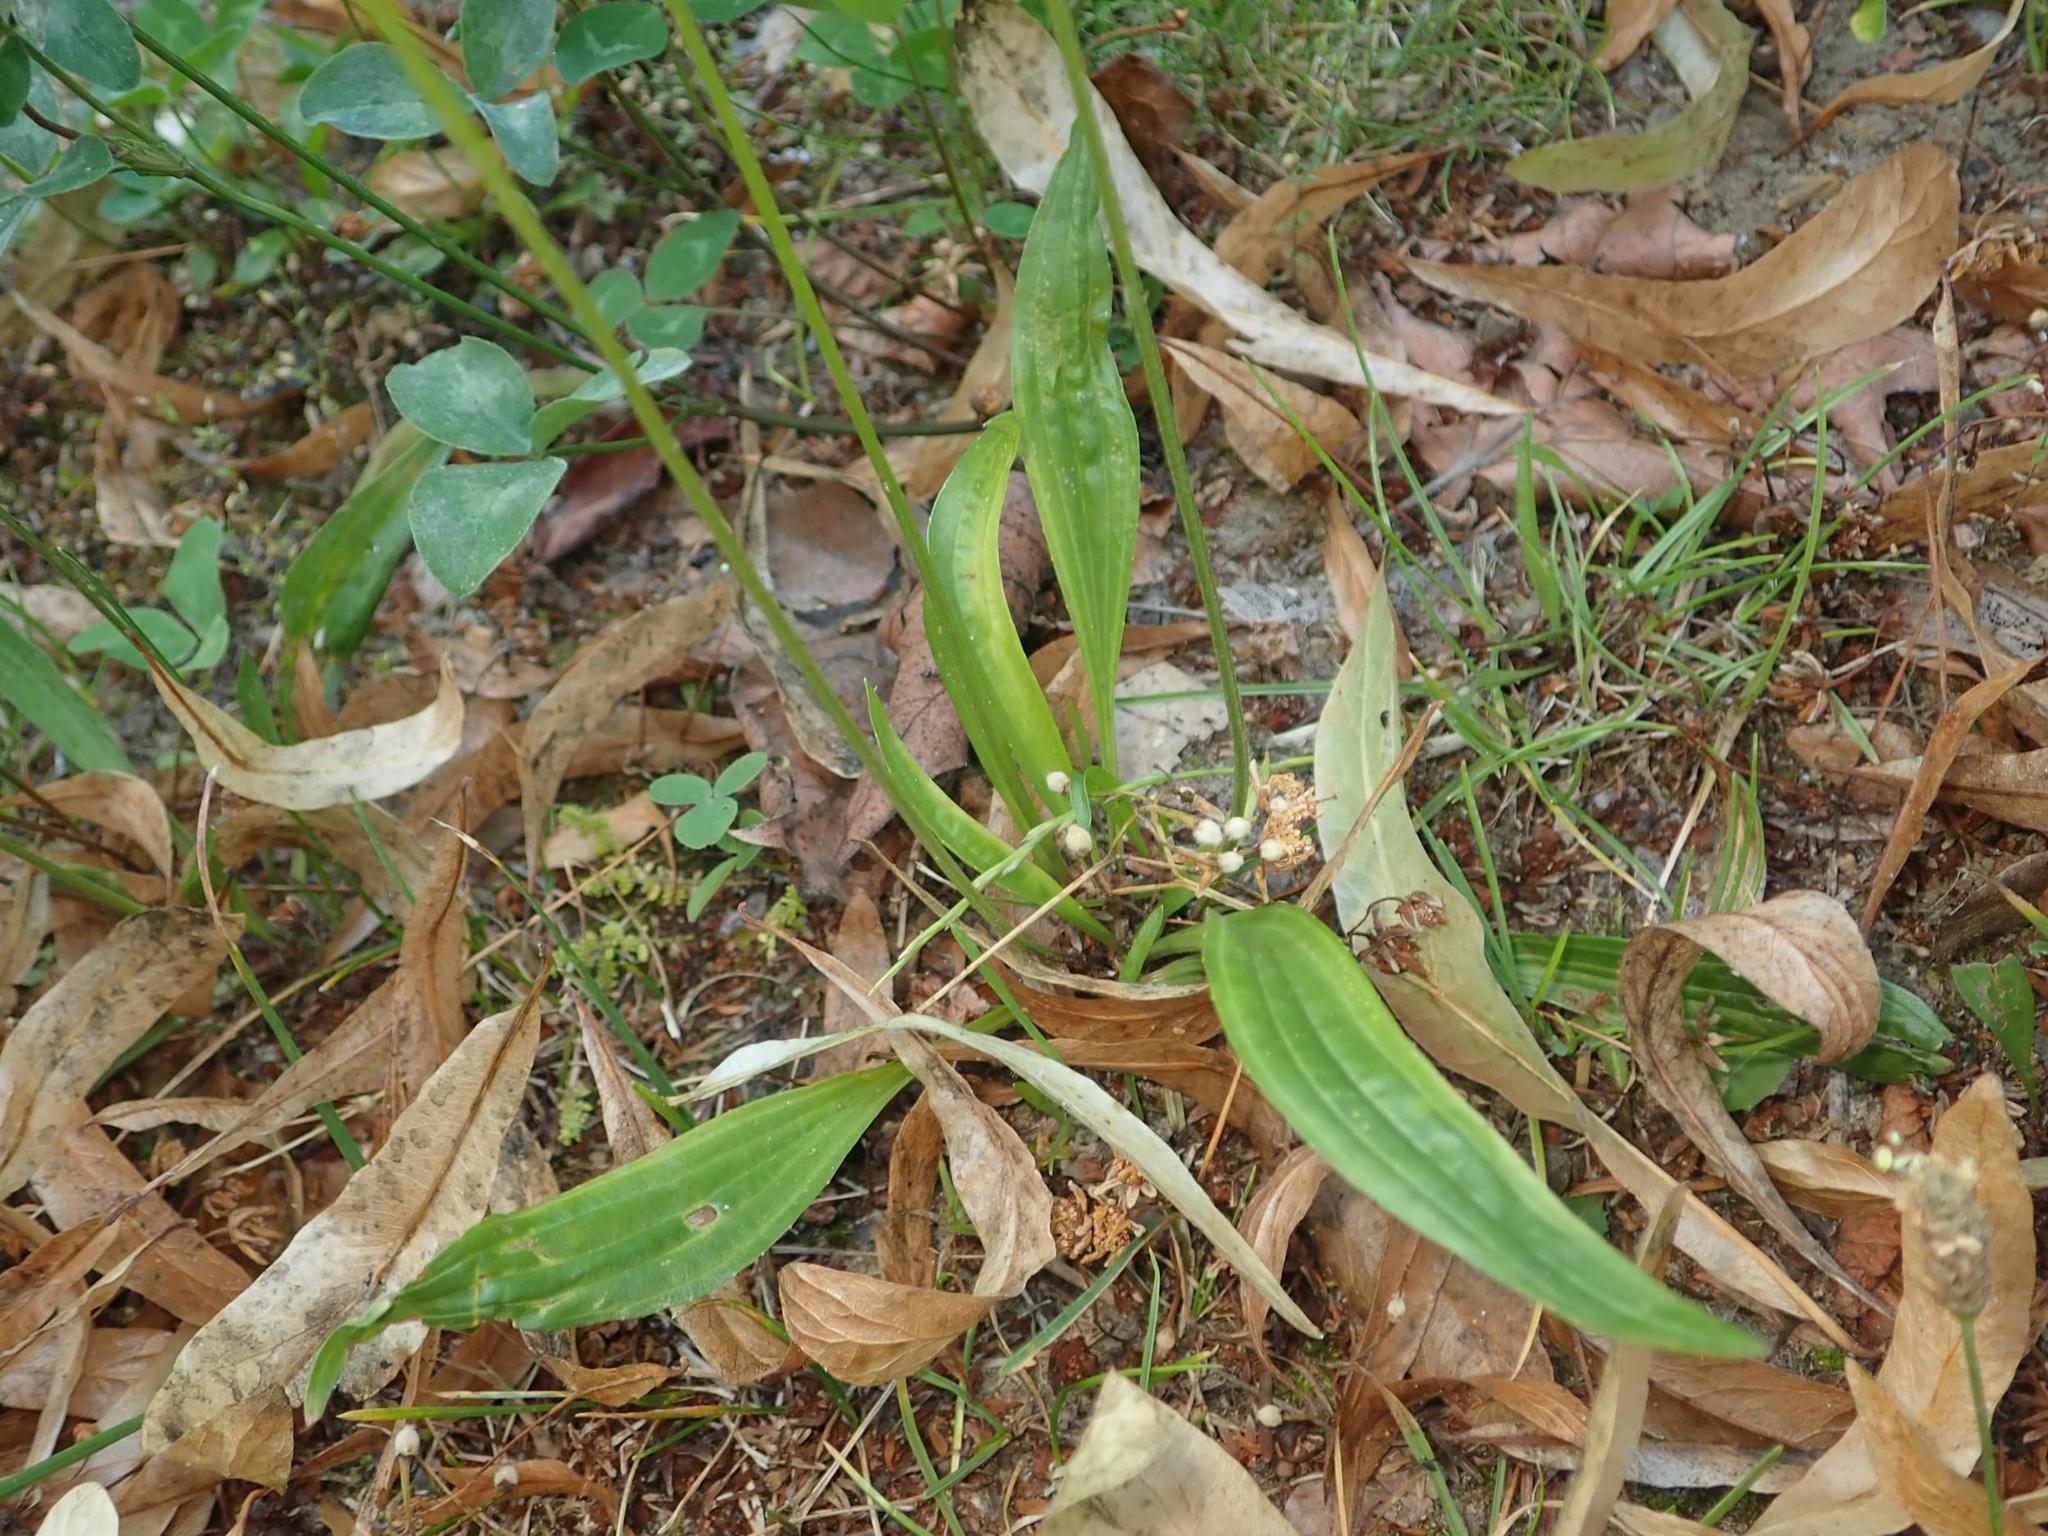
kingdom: Plantae
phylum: Tracheophyta
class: Magnoliopsida
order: Lamiales
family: Plantaginaceae
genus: Plantago
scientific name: Plantago lanceolata
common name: Ribwort plantain
